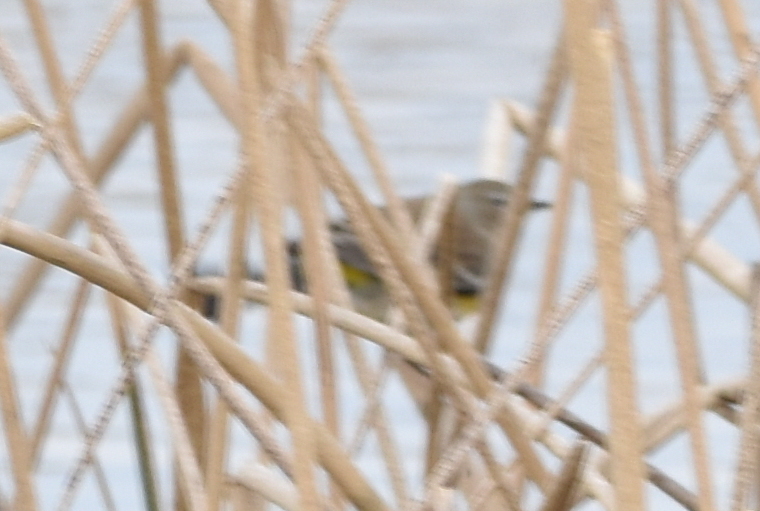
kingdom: Animalia
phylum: Chordata
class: Aves
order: Passeriformes
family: Parulidae
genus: Setophaga
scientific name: Setophaga coronata
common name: Myrtle warbler
